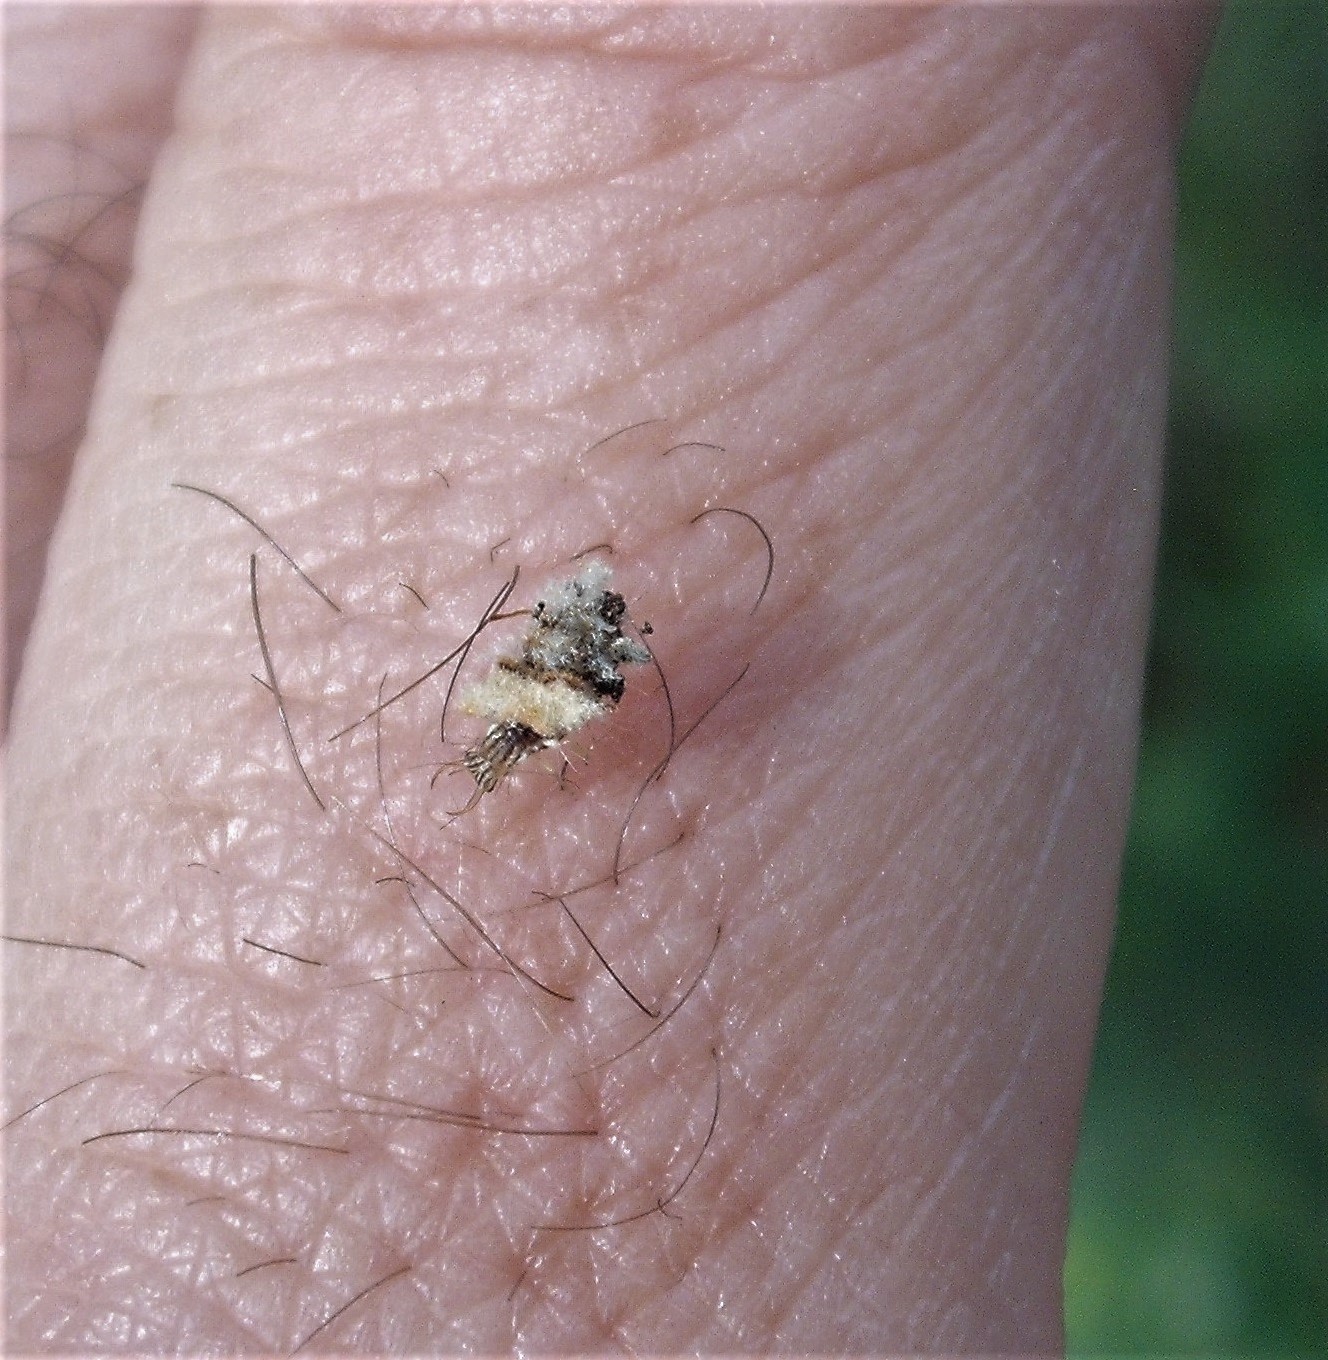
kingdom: Animalia
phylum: Arthropoda
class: Insecta
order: Neuroptera
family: Chrysopidae
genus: Mallada
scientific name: Mallada basalis
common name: Green lacewing
